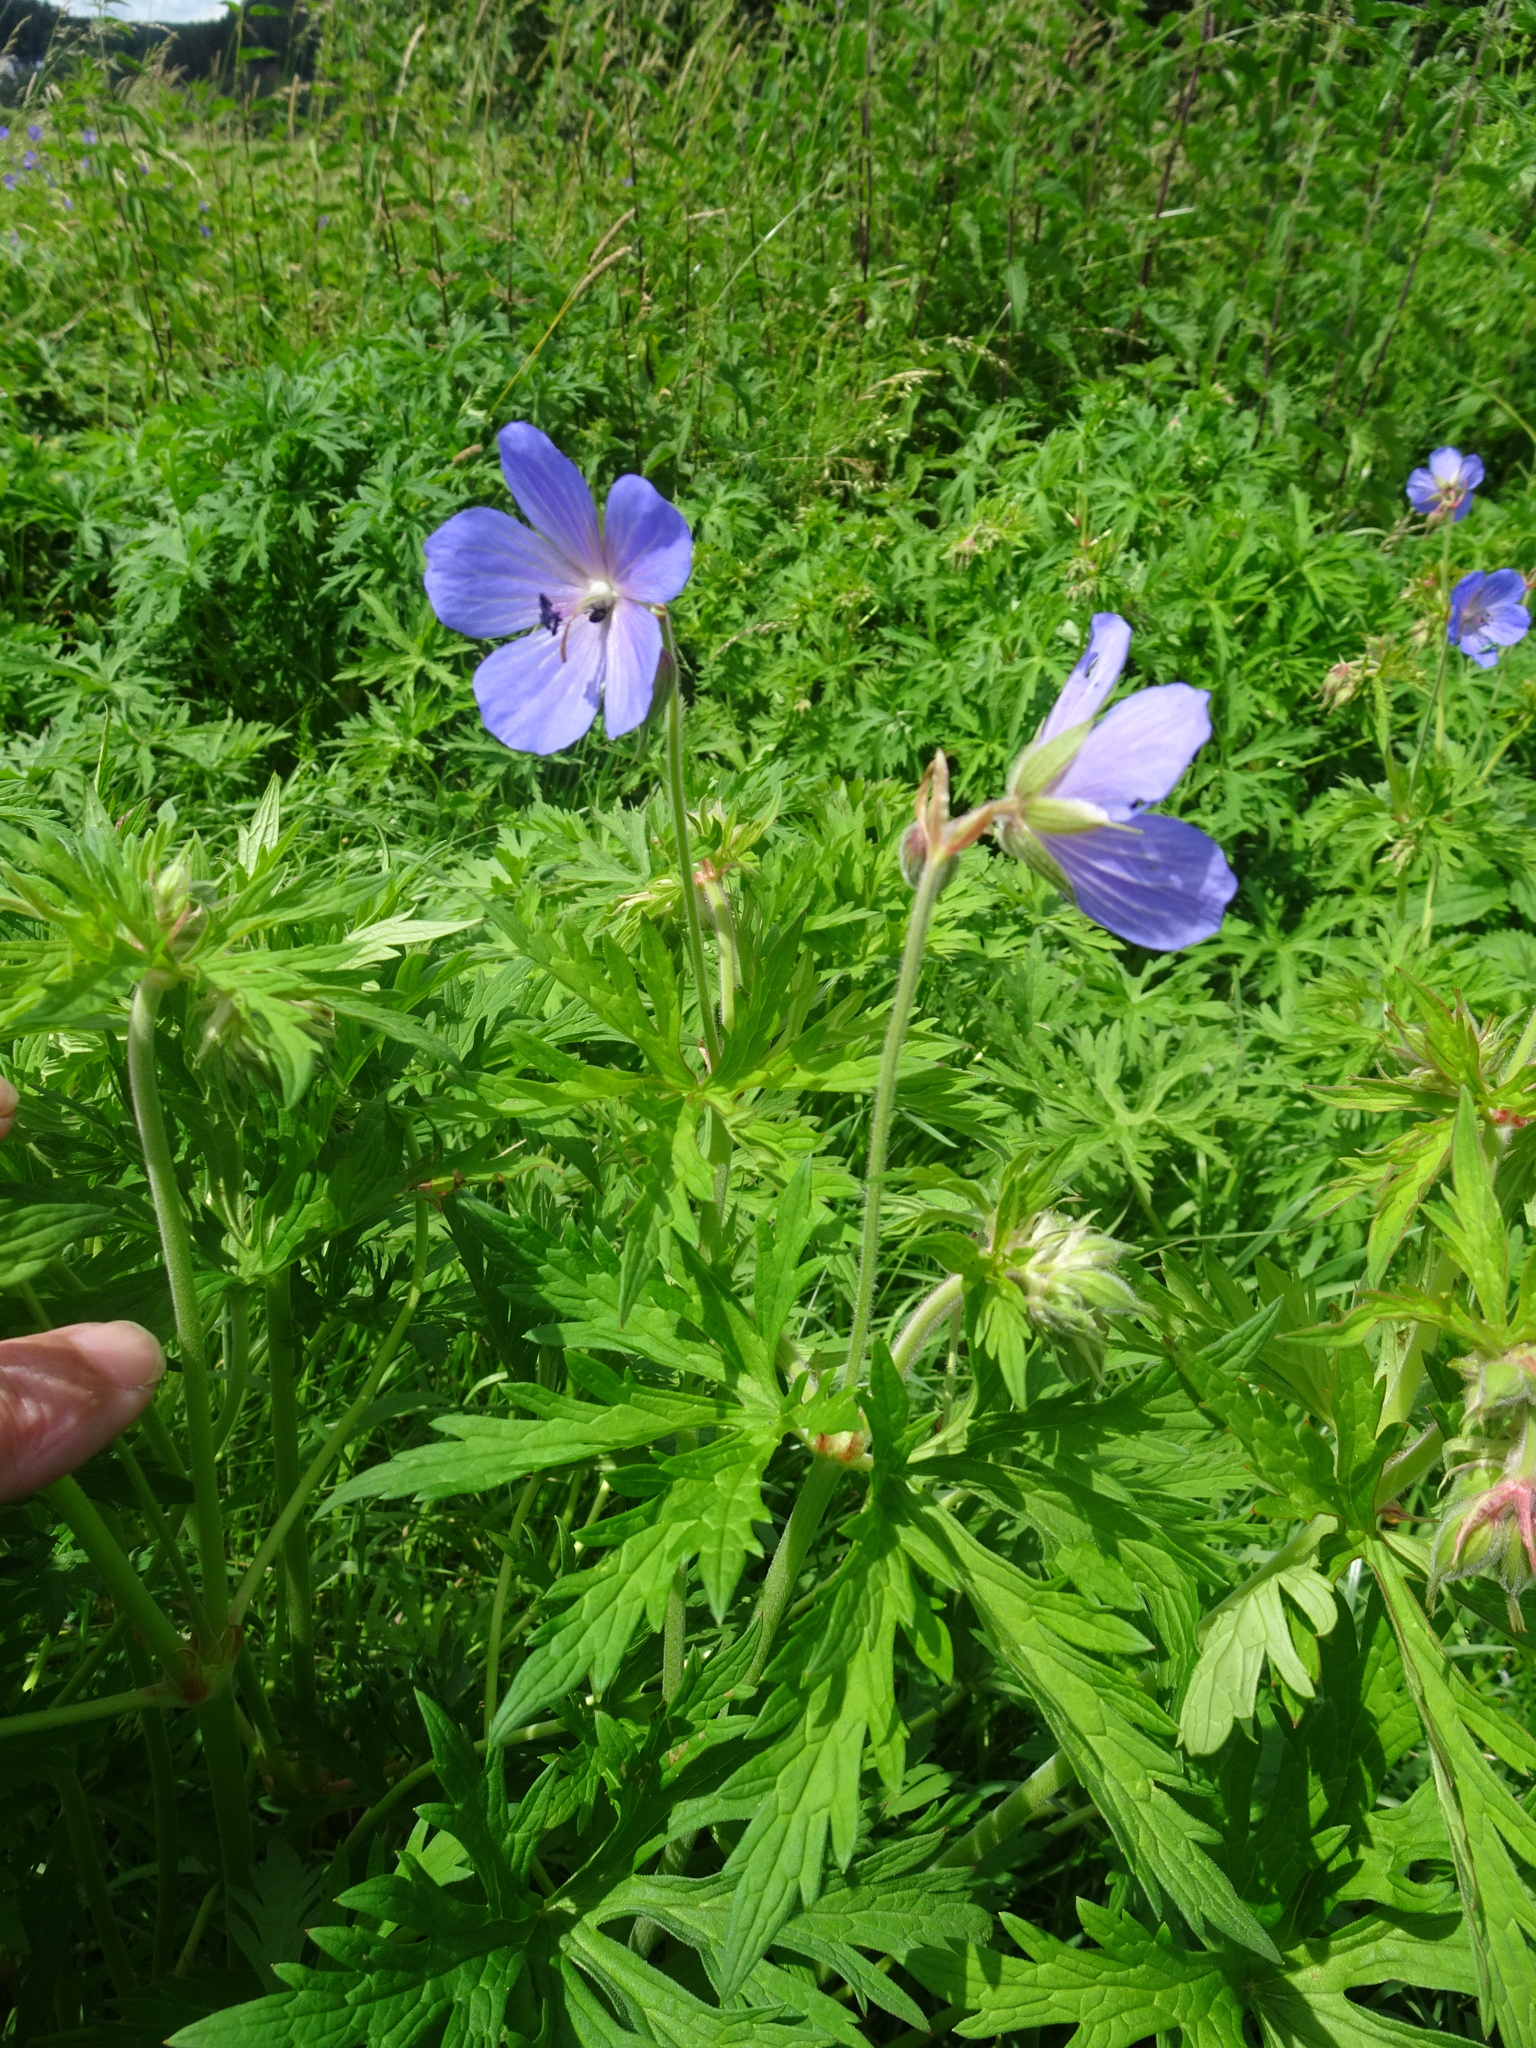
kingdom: Plantae
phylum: Tracheophyta
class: Magnoliopsida
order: Geraniales
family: Geraniaceae
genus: Geranium
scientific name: Geranium pratense
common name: Meadow crane's-bill
